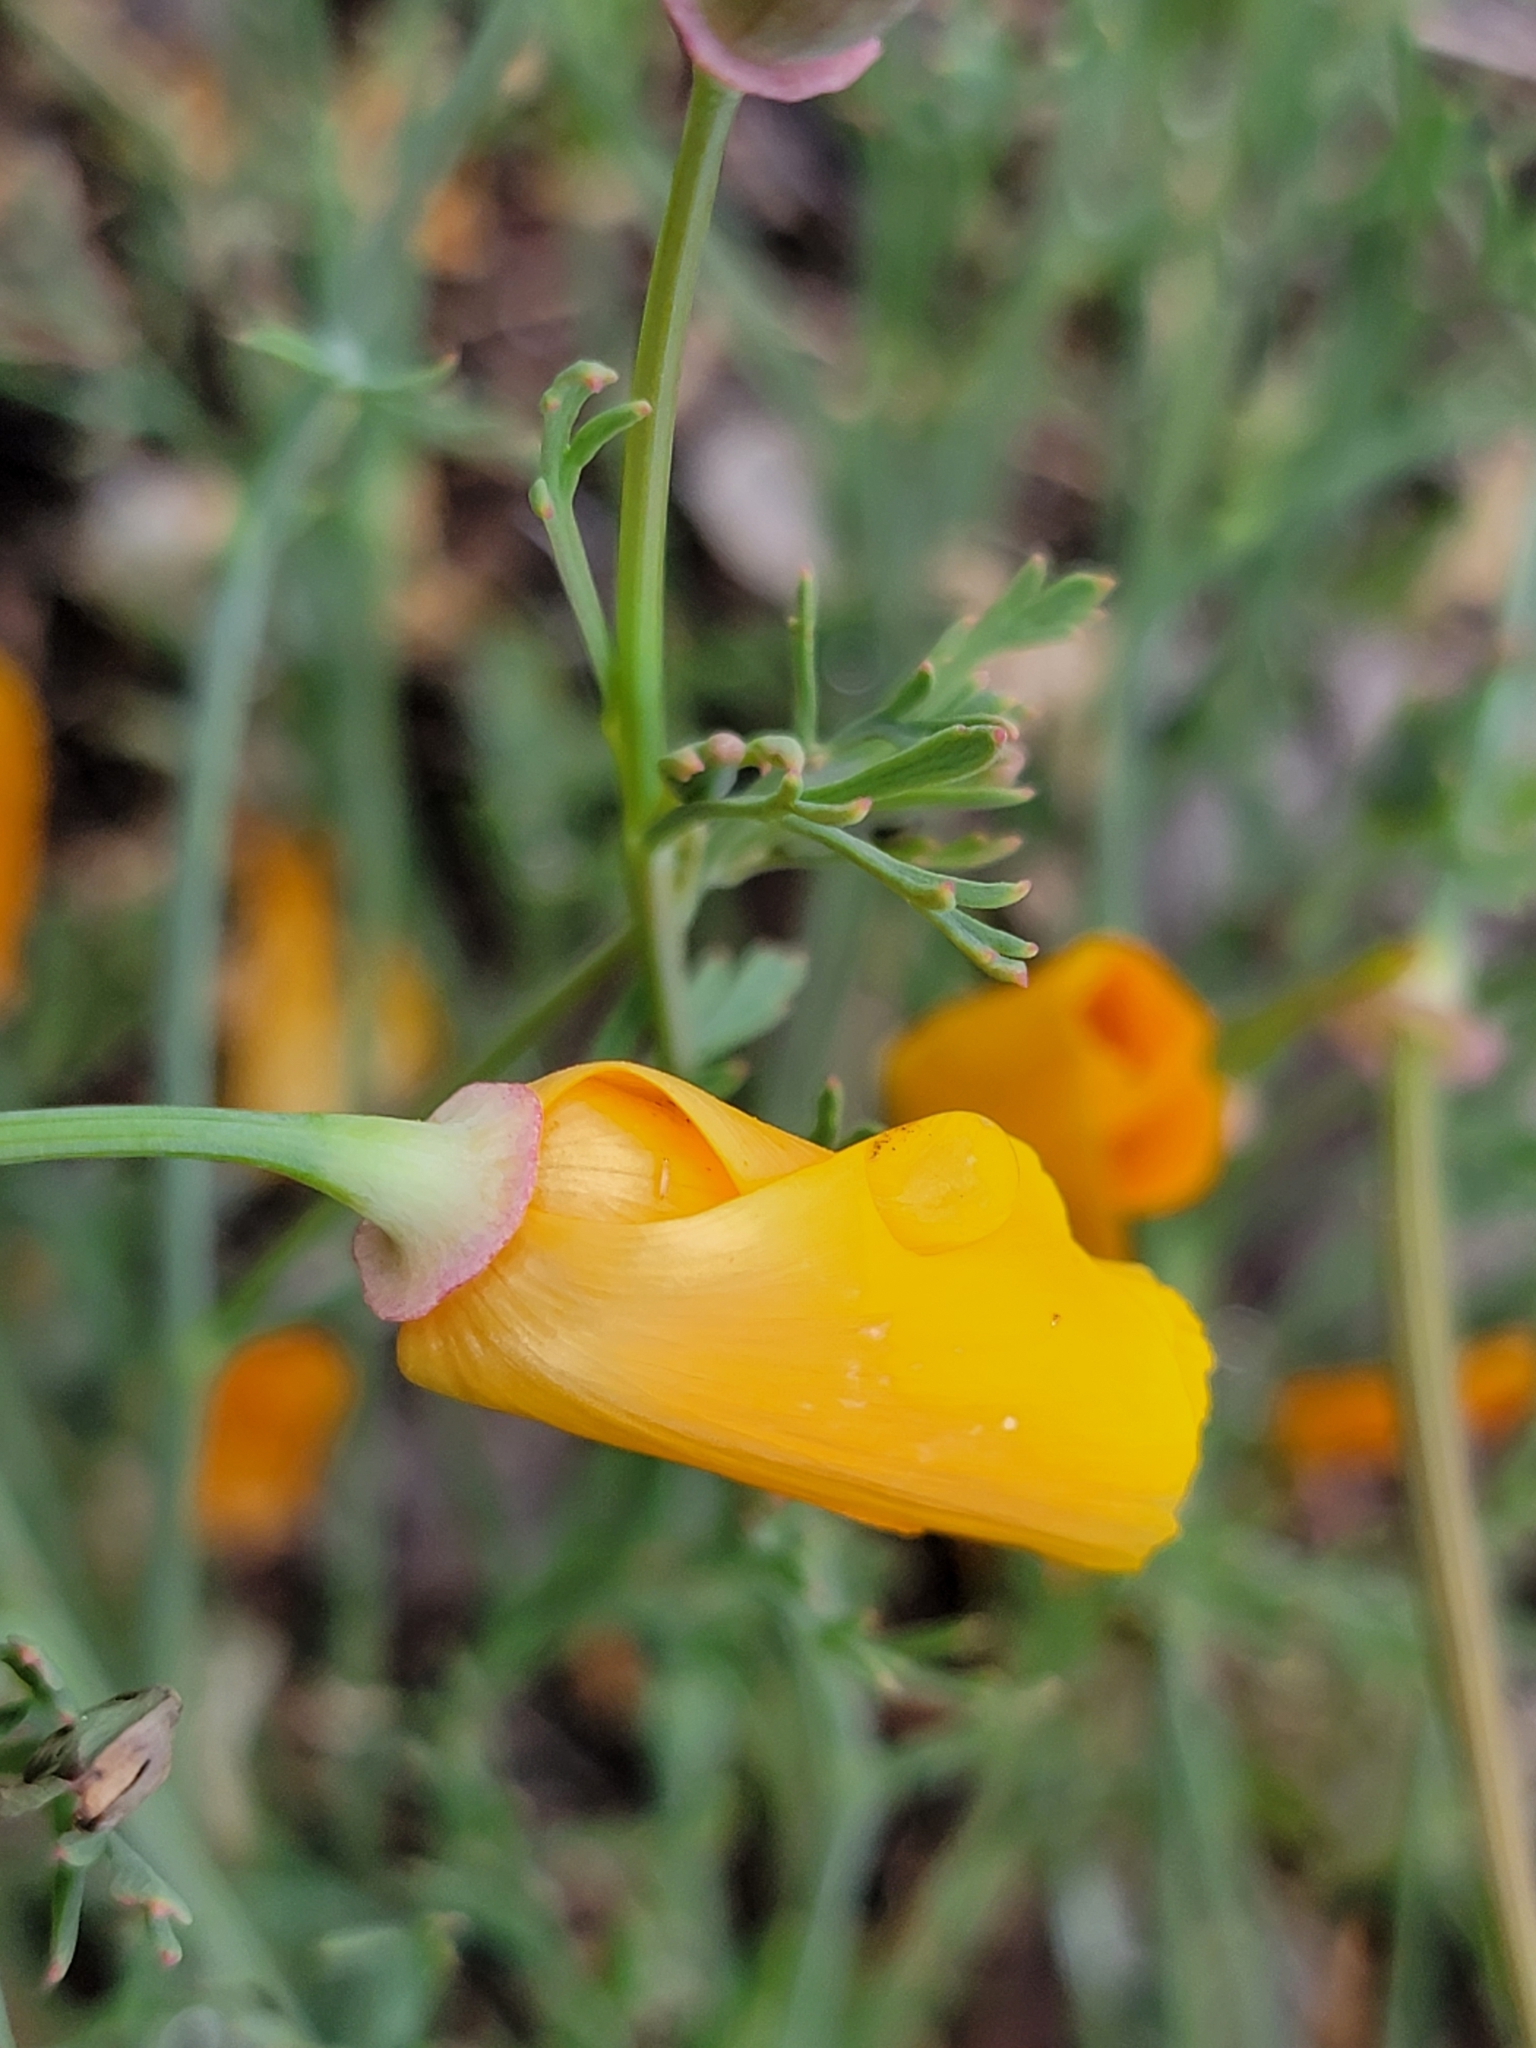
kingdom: Plantae
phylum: Tracheophyta
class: Magnoliopsida
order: Ranunculales
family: Papaveraceae
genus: Eschscholzia
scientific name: Eschscholzia californica
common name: California poppy
